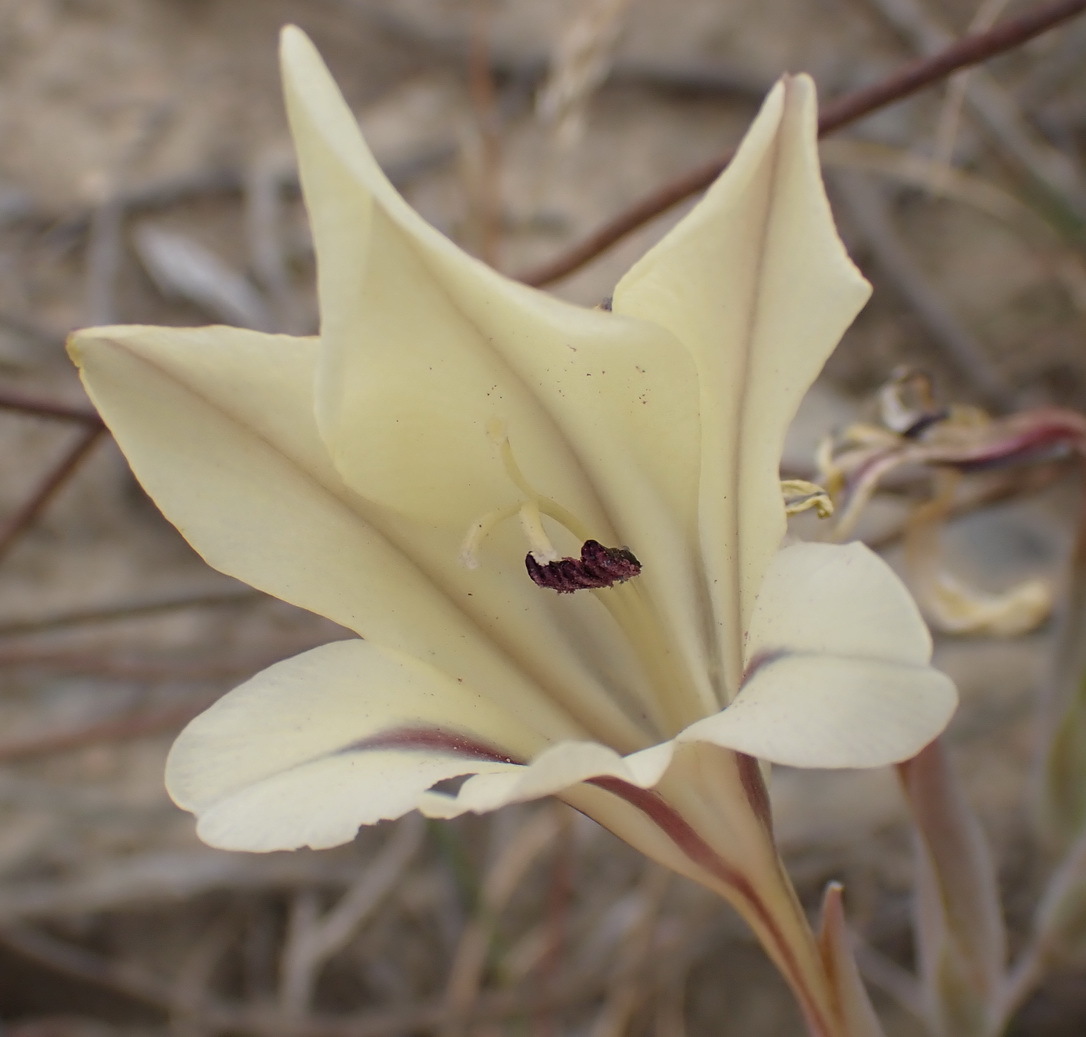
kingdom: Plantae
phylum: Tracheophyta
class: Liliopsida
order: Asparagales
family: Iridaceae
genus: Gladiolus
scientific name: Gladiolus floribundus
